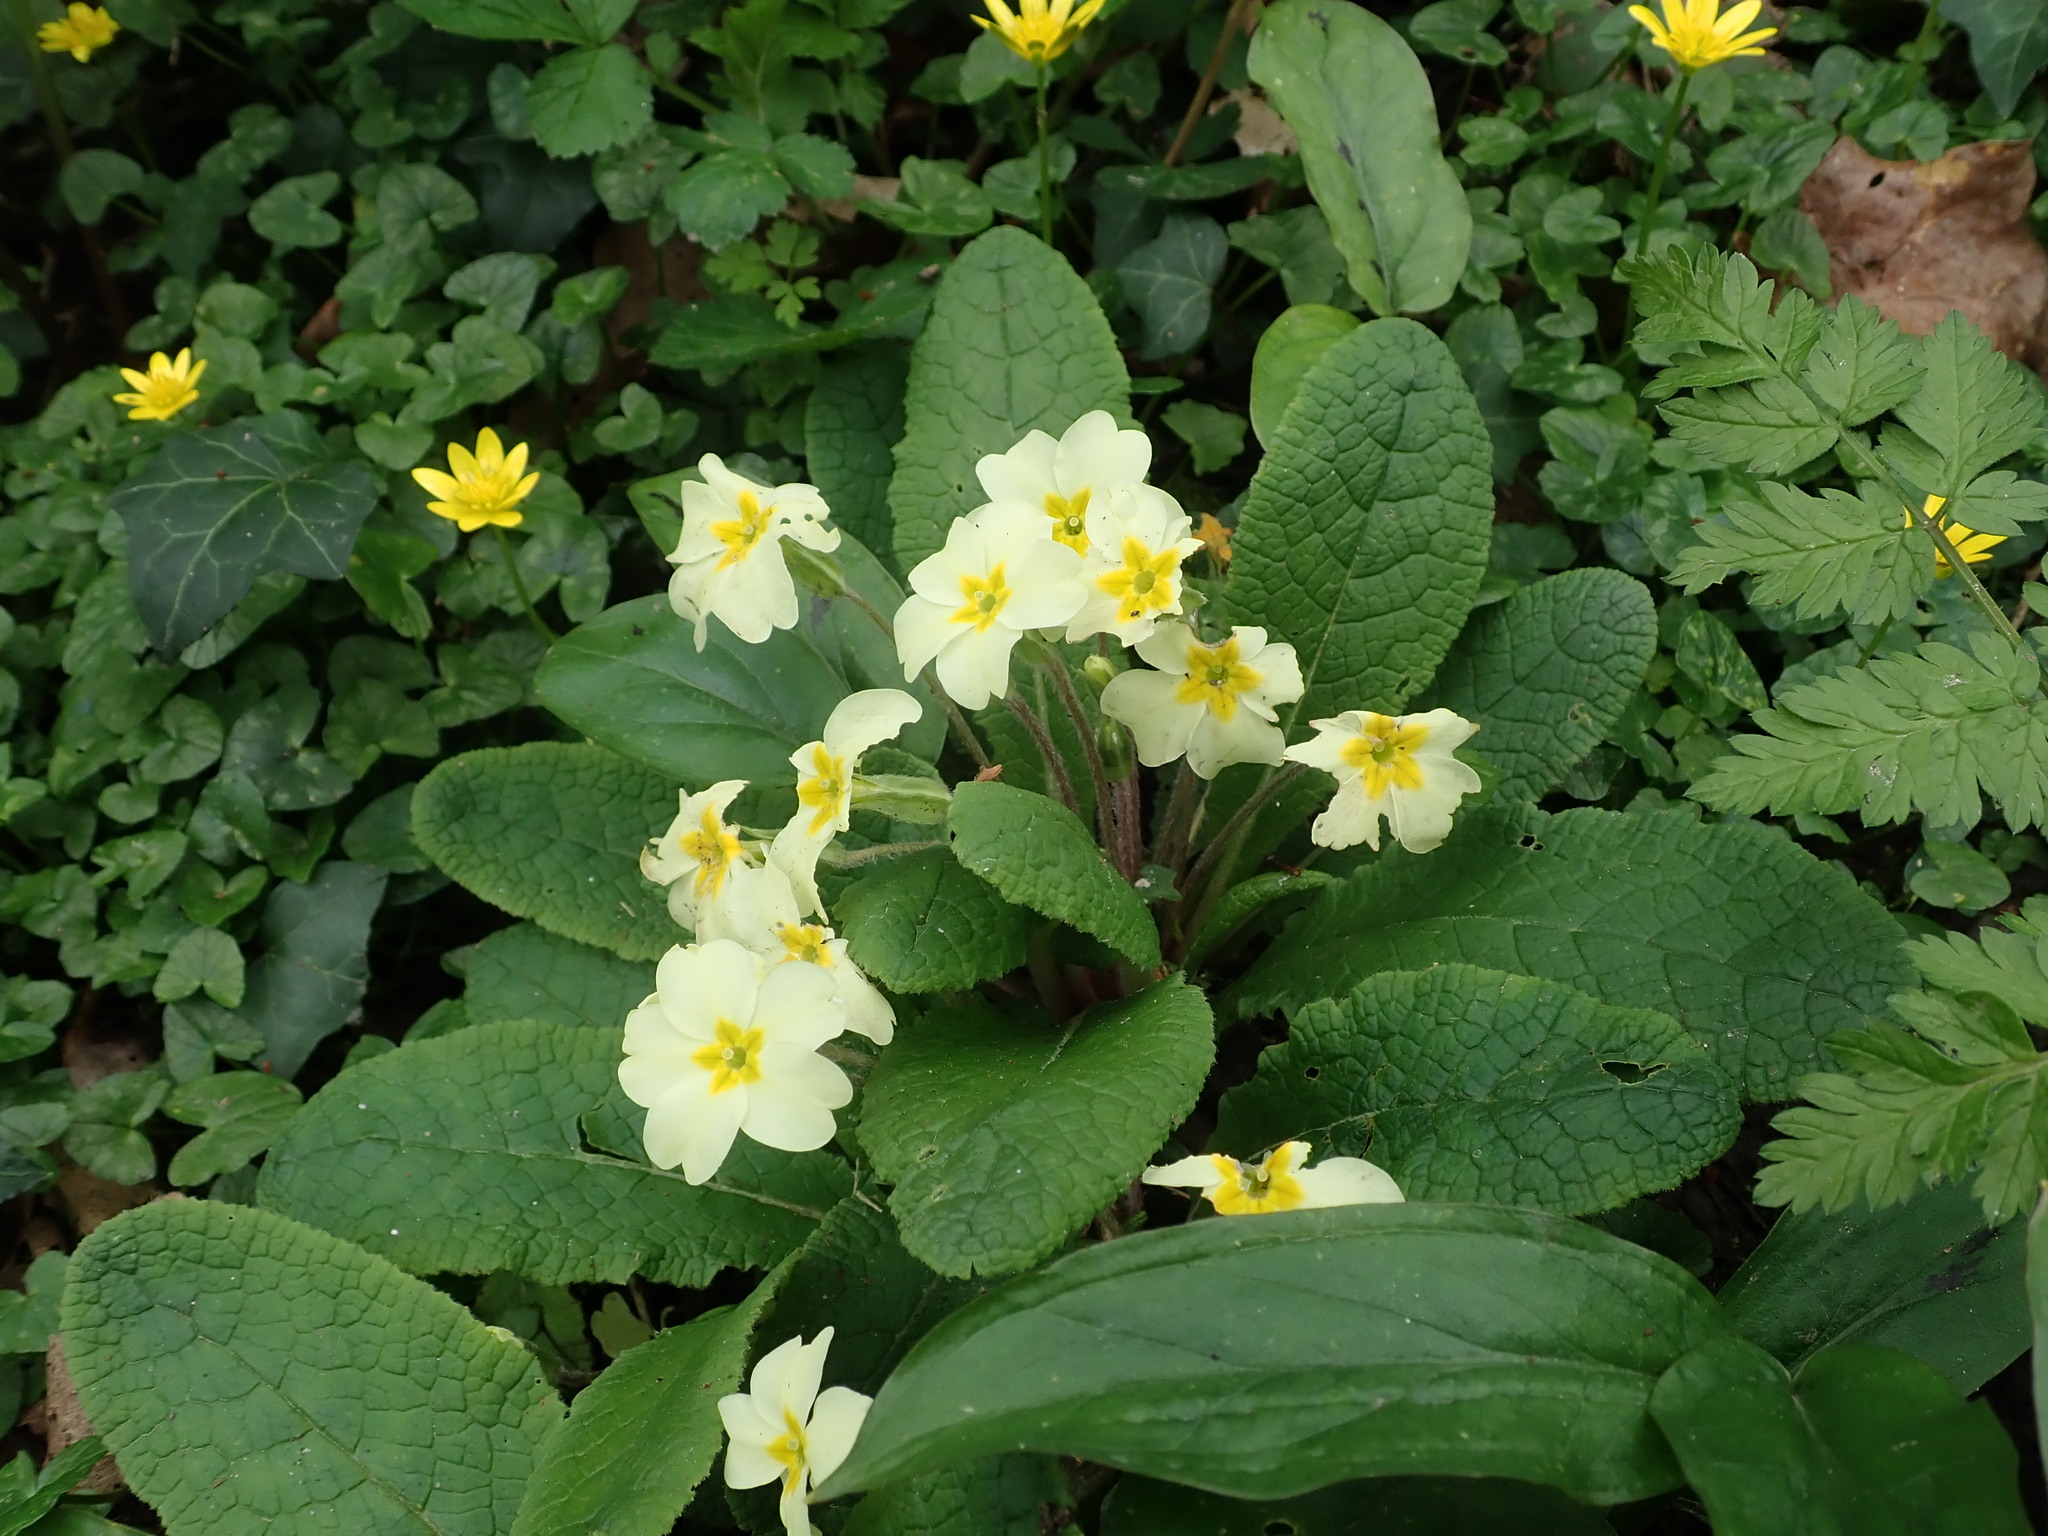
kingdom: Plantae
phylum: Tracheophyta
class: Magnoliopsida
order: Ericales
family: Primulaceae
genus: Primula
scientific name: Primula vulgaris
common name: Primrose
